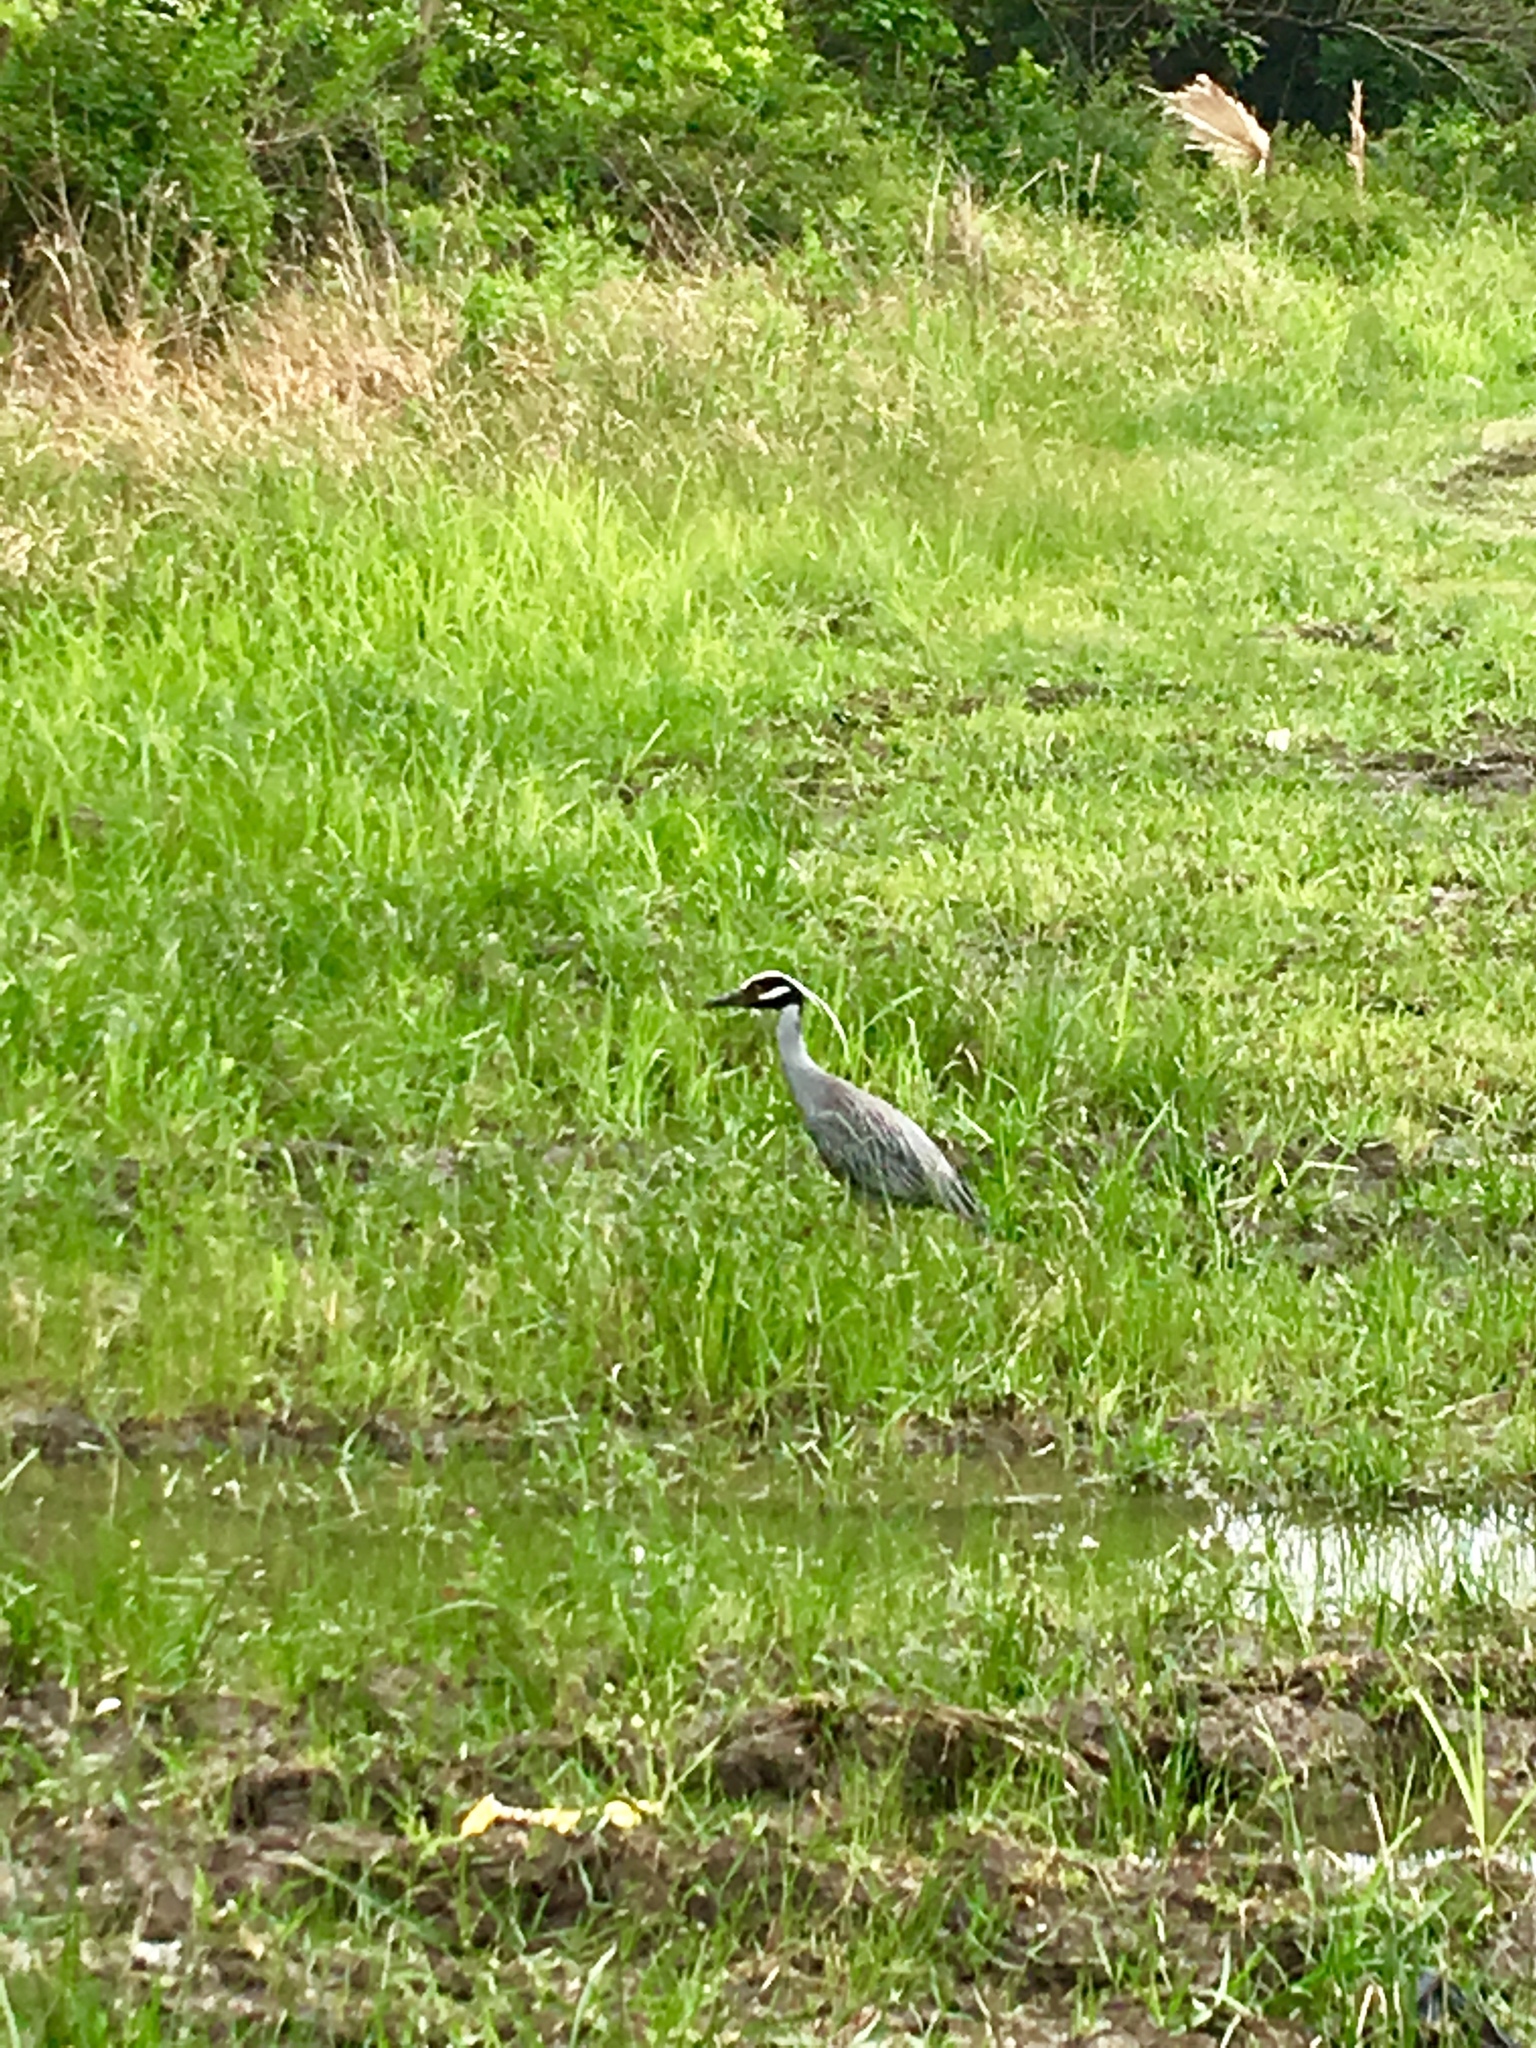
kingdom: Animalia
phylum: Chordata
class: Aves
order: Pelecaniformes
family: Ardeidae
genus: Nyctanassa
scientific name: Nyctanassa violacea
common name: Yellow-crowned night heron
